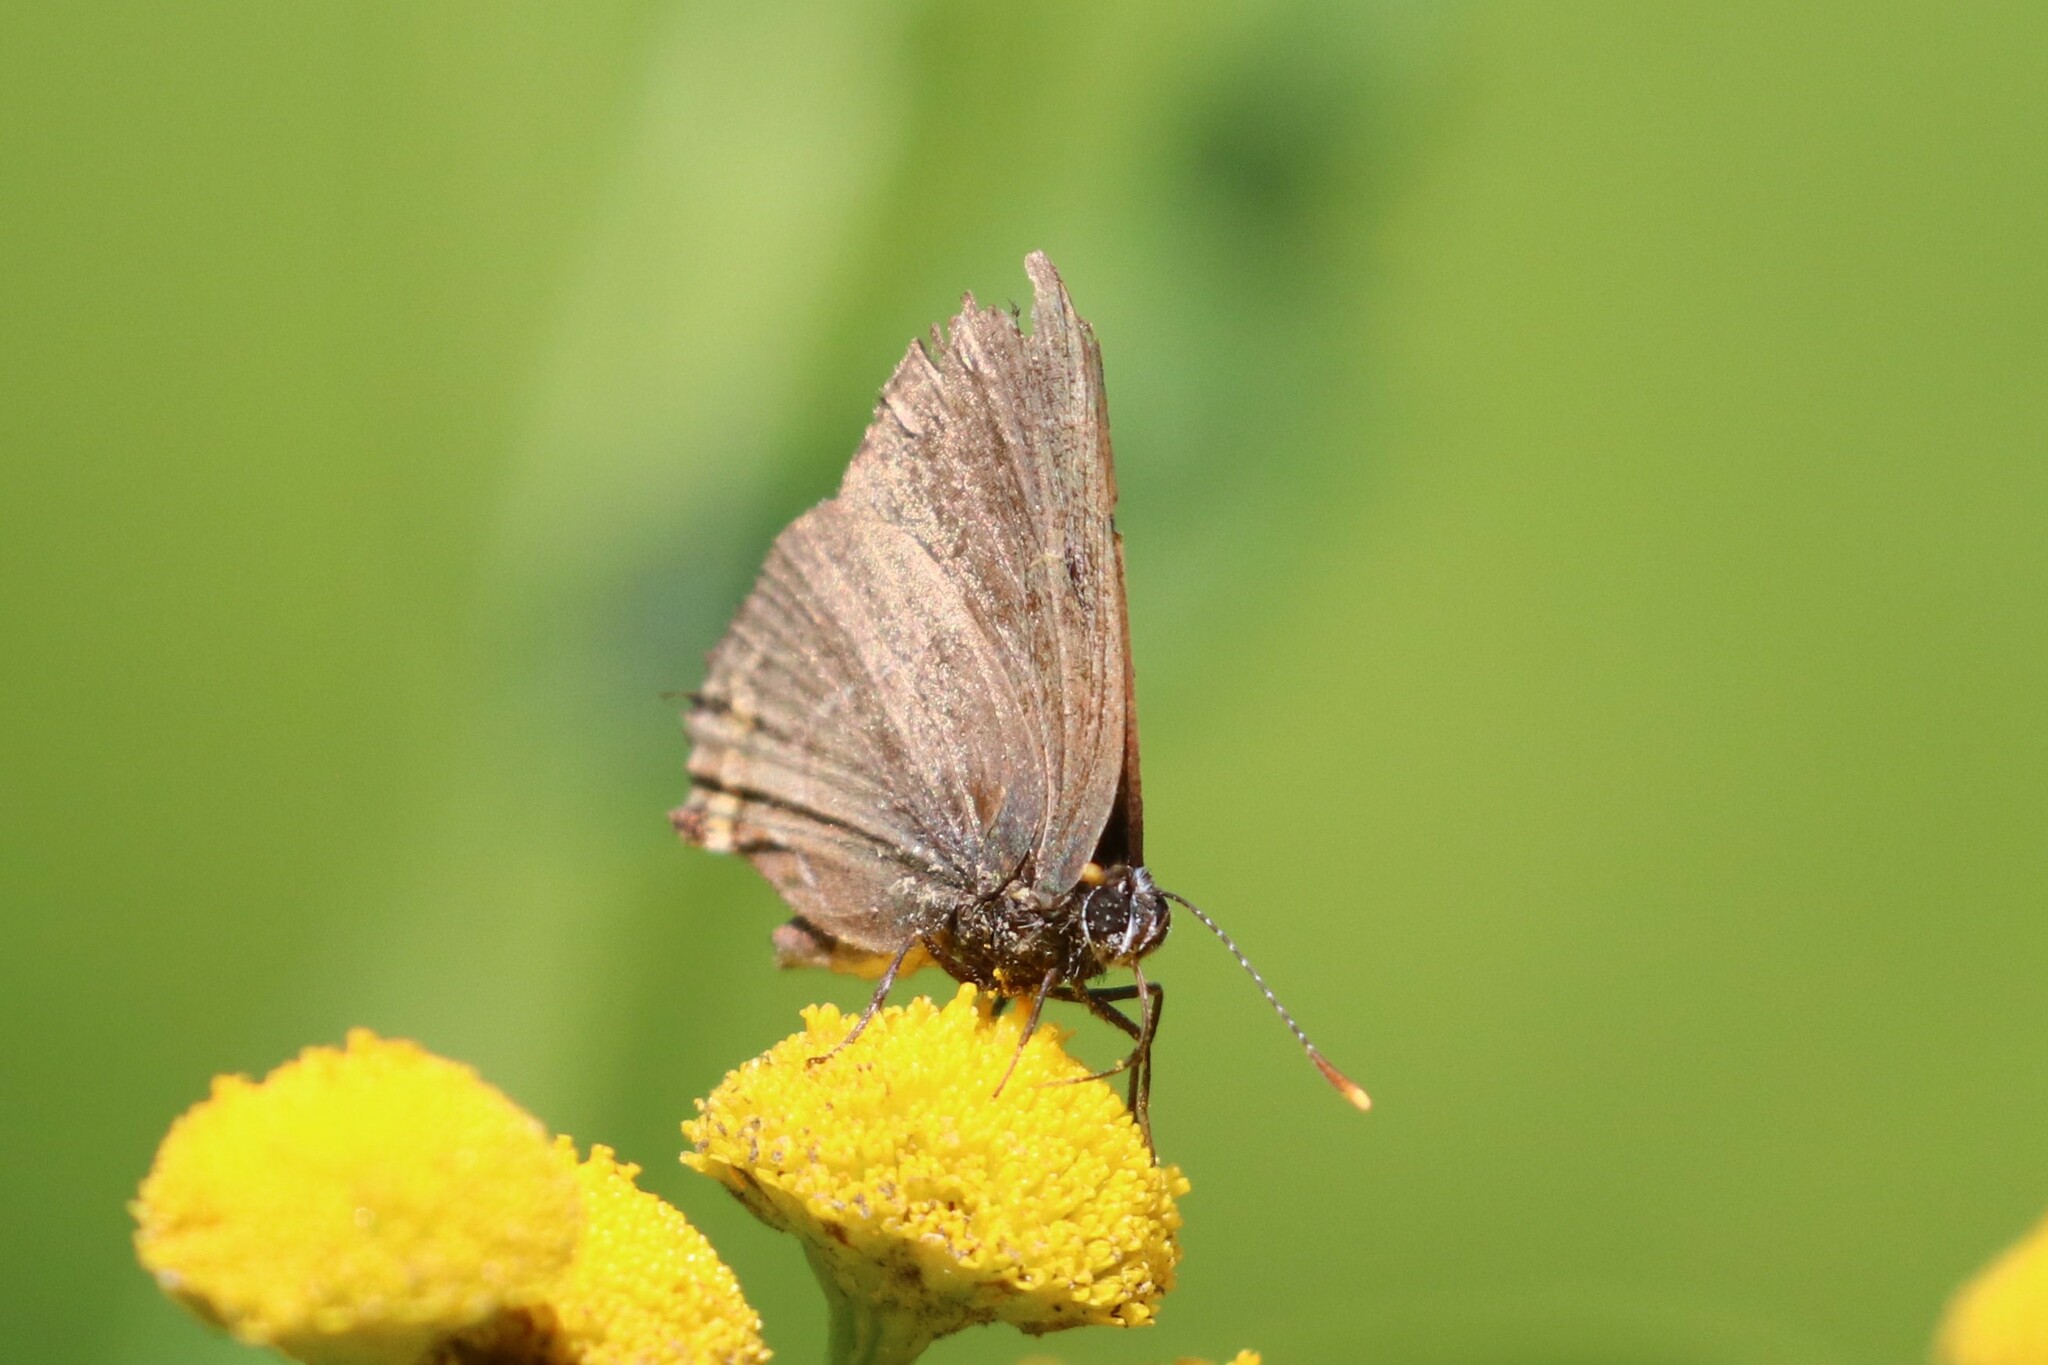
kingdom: Animalia
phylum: Arthropoda
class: Insecta
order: Lepidoptera
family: Lycaenidae
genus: Satyrium
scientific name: Satyrium w-album
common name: White-letter hairstreak
